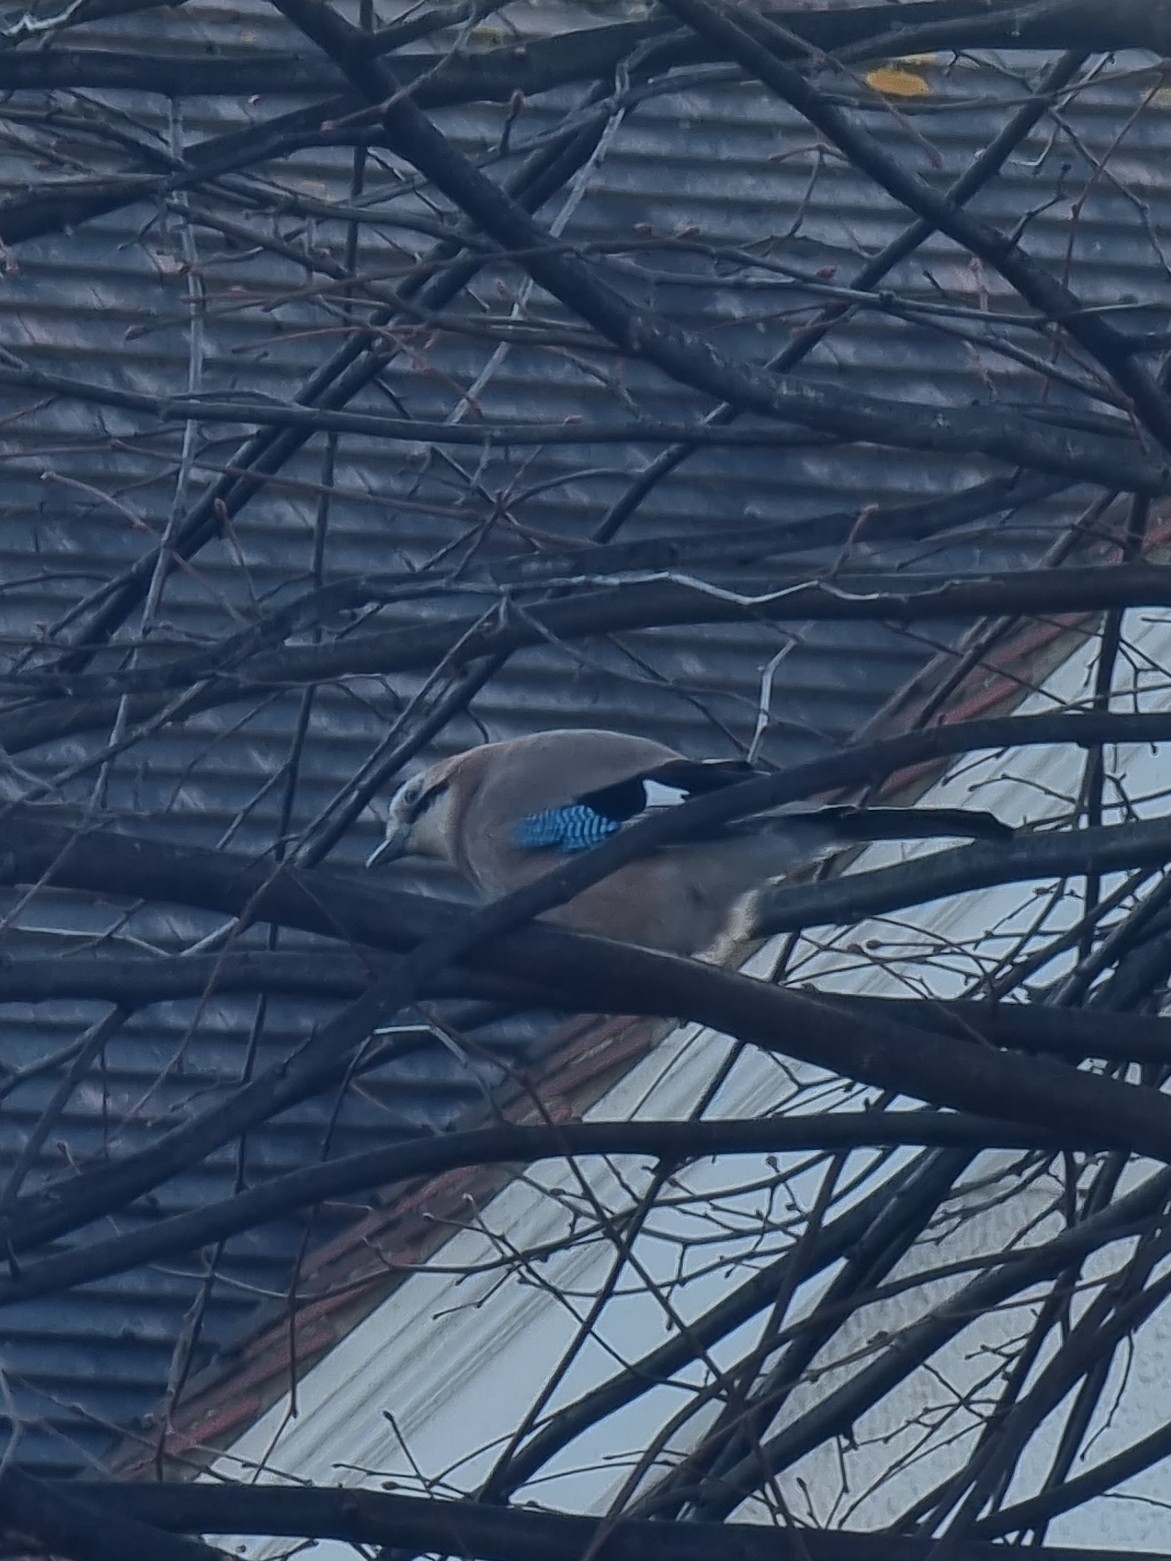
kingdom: Animalia
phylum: Chordata
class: Aves
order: Passeriformes
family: Corvidae
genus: Garrulus
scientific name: Garrulus glandarius
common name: Eurasian jay
